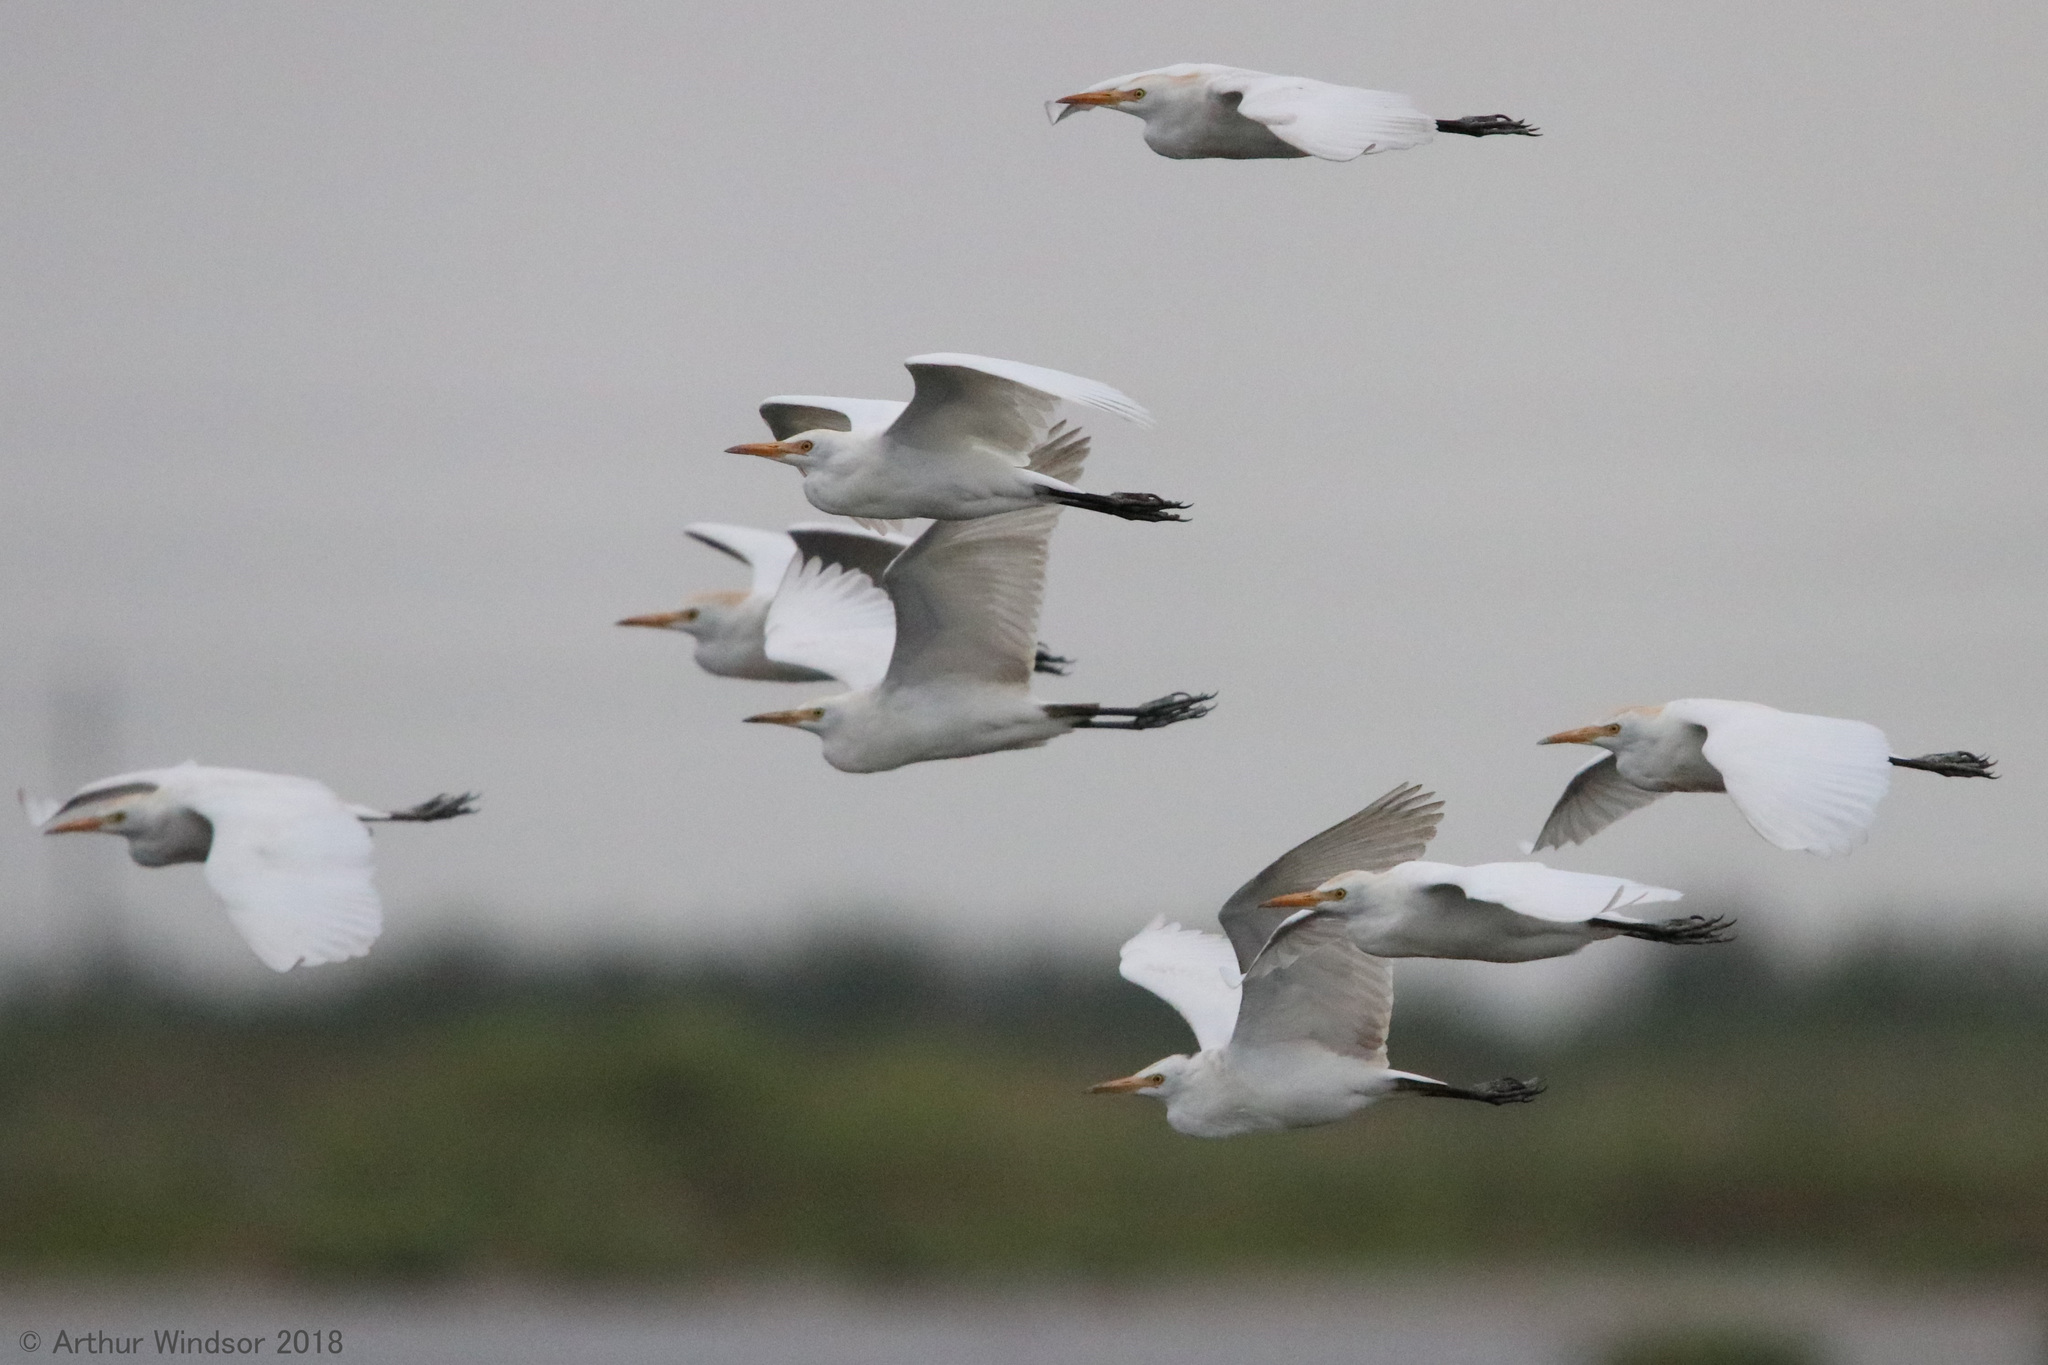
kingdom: Animalia
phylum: Chordata
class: Aves
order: Pelecaniformes
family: Ardeidae
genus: Bubulcus
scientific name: Bubulcus ibis
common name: Cattle egret
